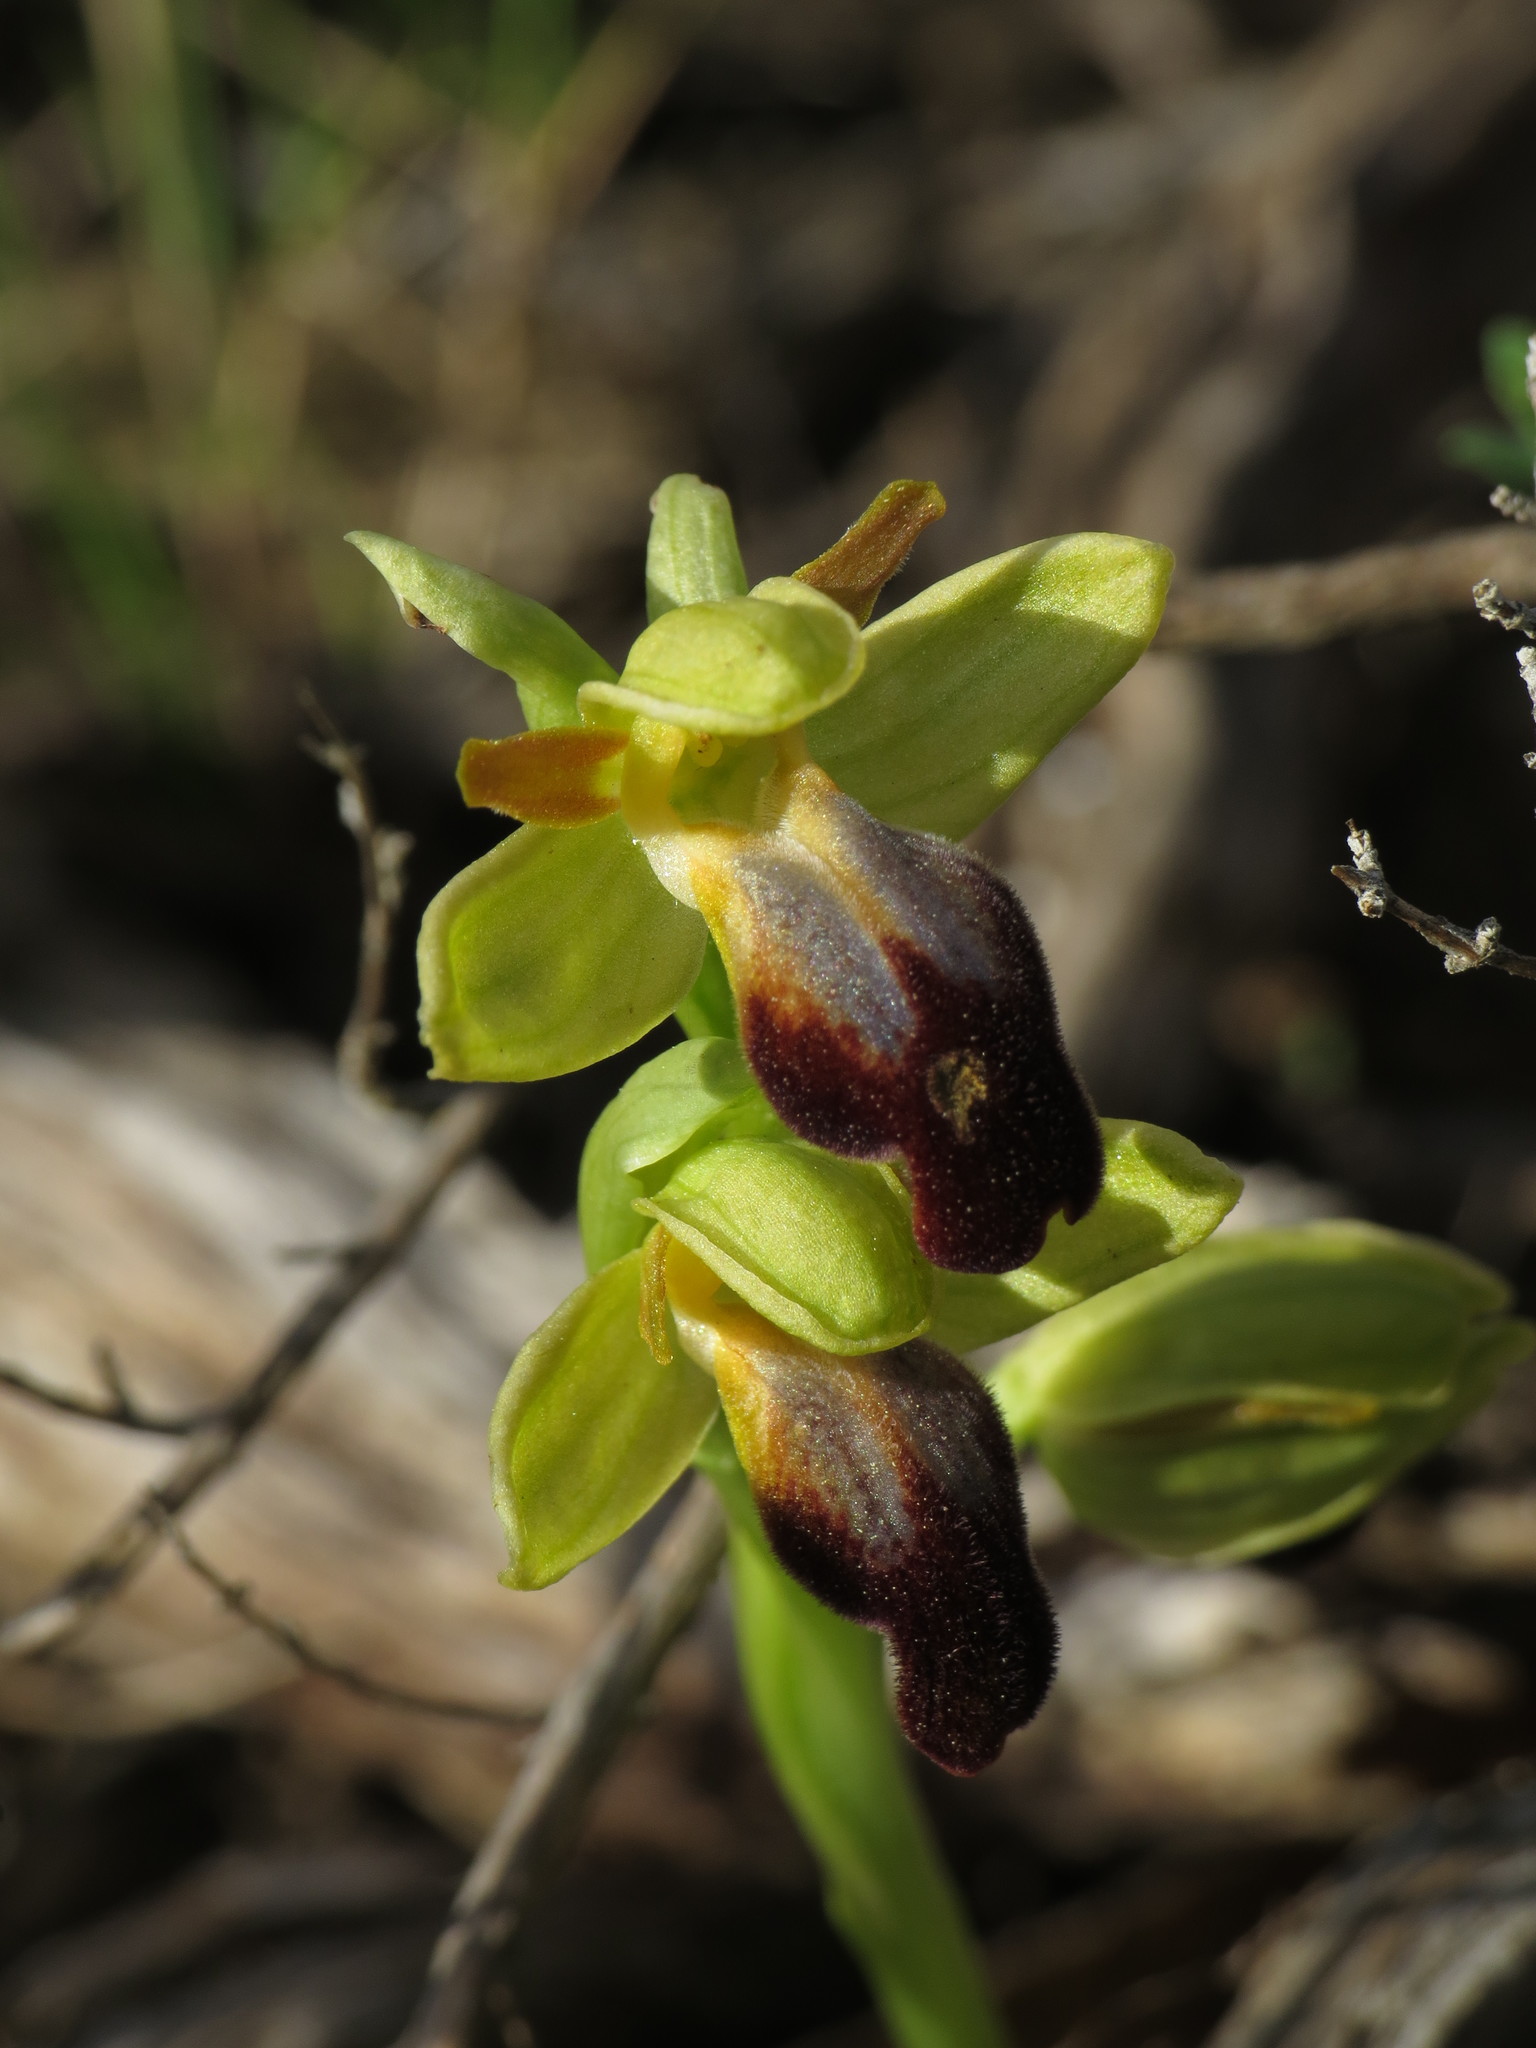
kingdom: Plantae
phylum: Tracheophyta
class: Liliopsida
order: Asparagales
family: Orchidaceae
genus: Ophrys
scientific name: Ophrys fusca
